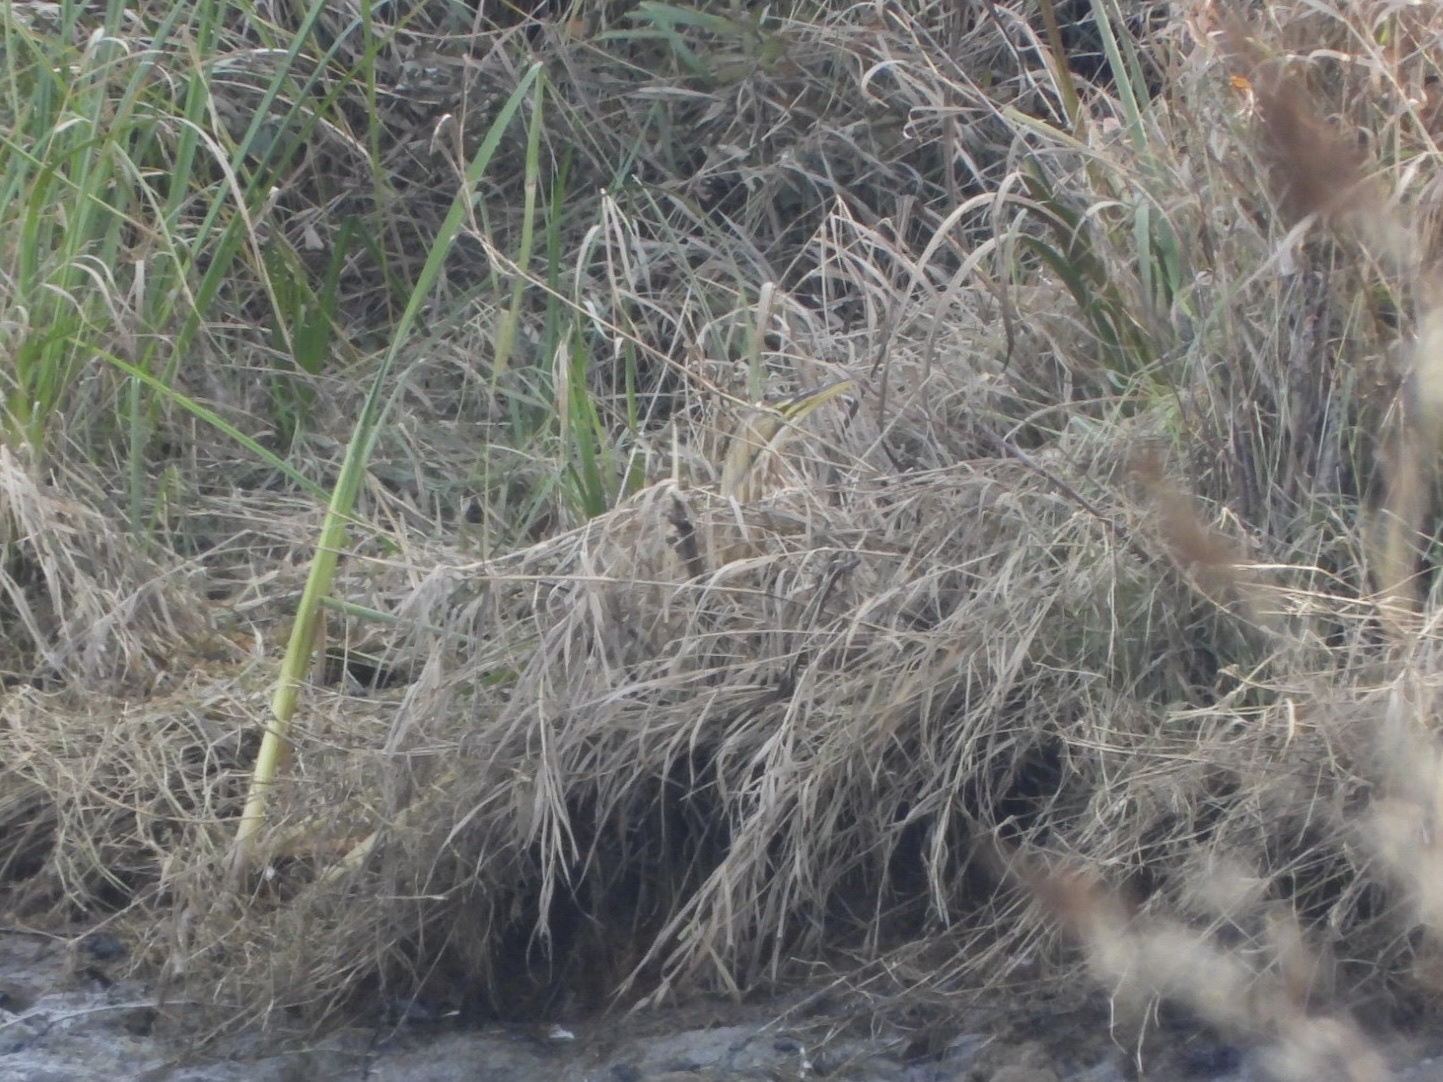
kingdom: Animalia
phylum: Chordata
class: Aves
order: Pelecaniformes
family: Ardeidae
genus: Botaurus
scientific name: Botaurus lentiginosus
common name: American bittern
